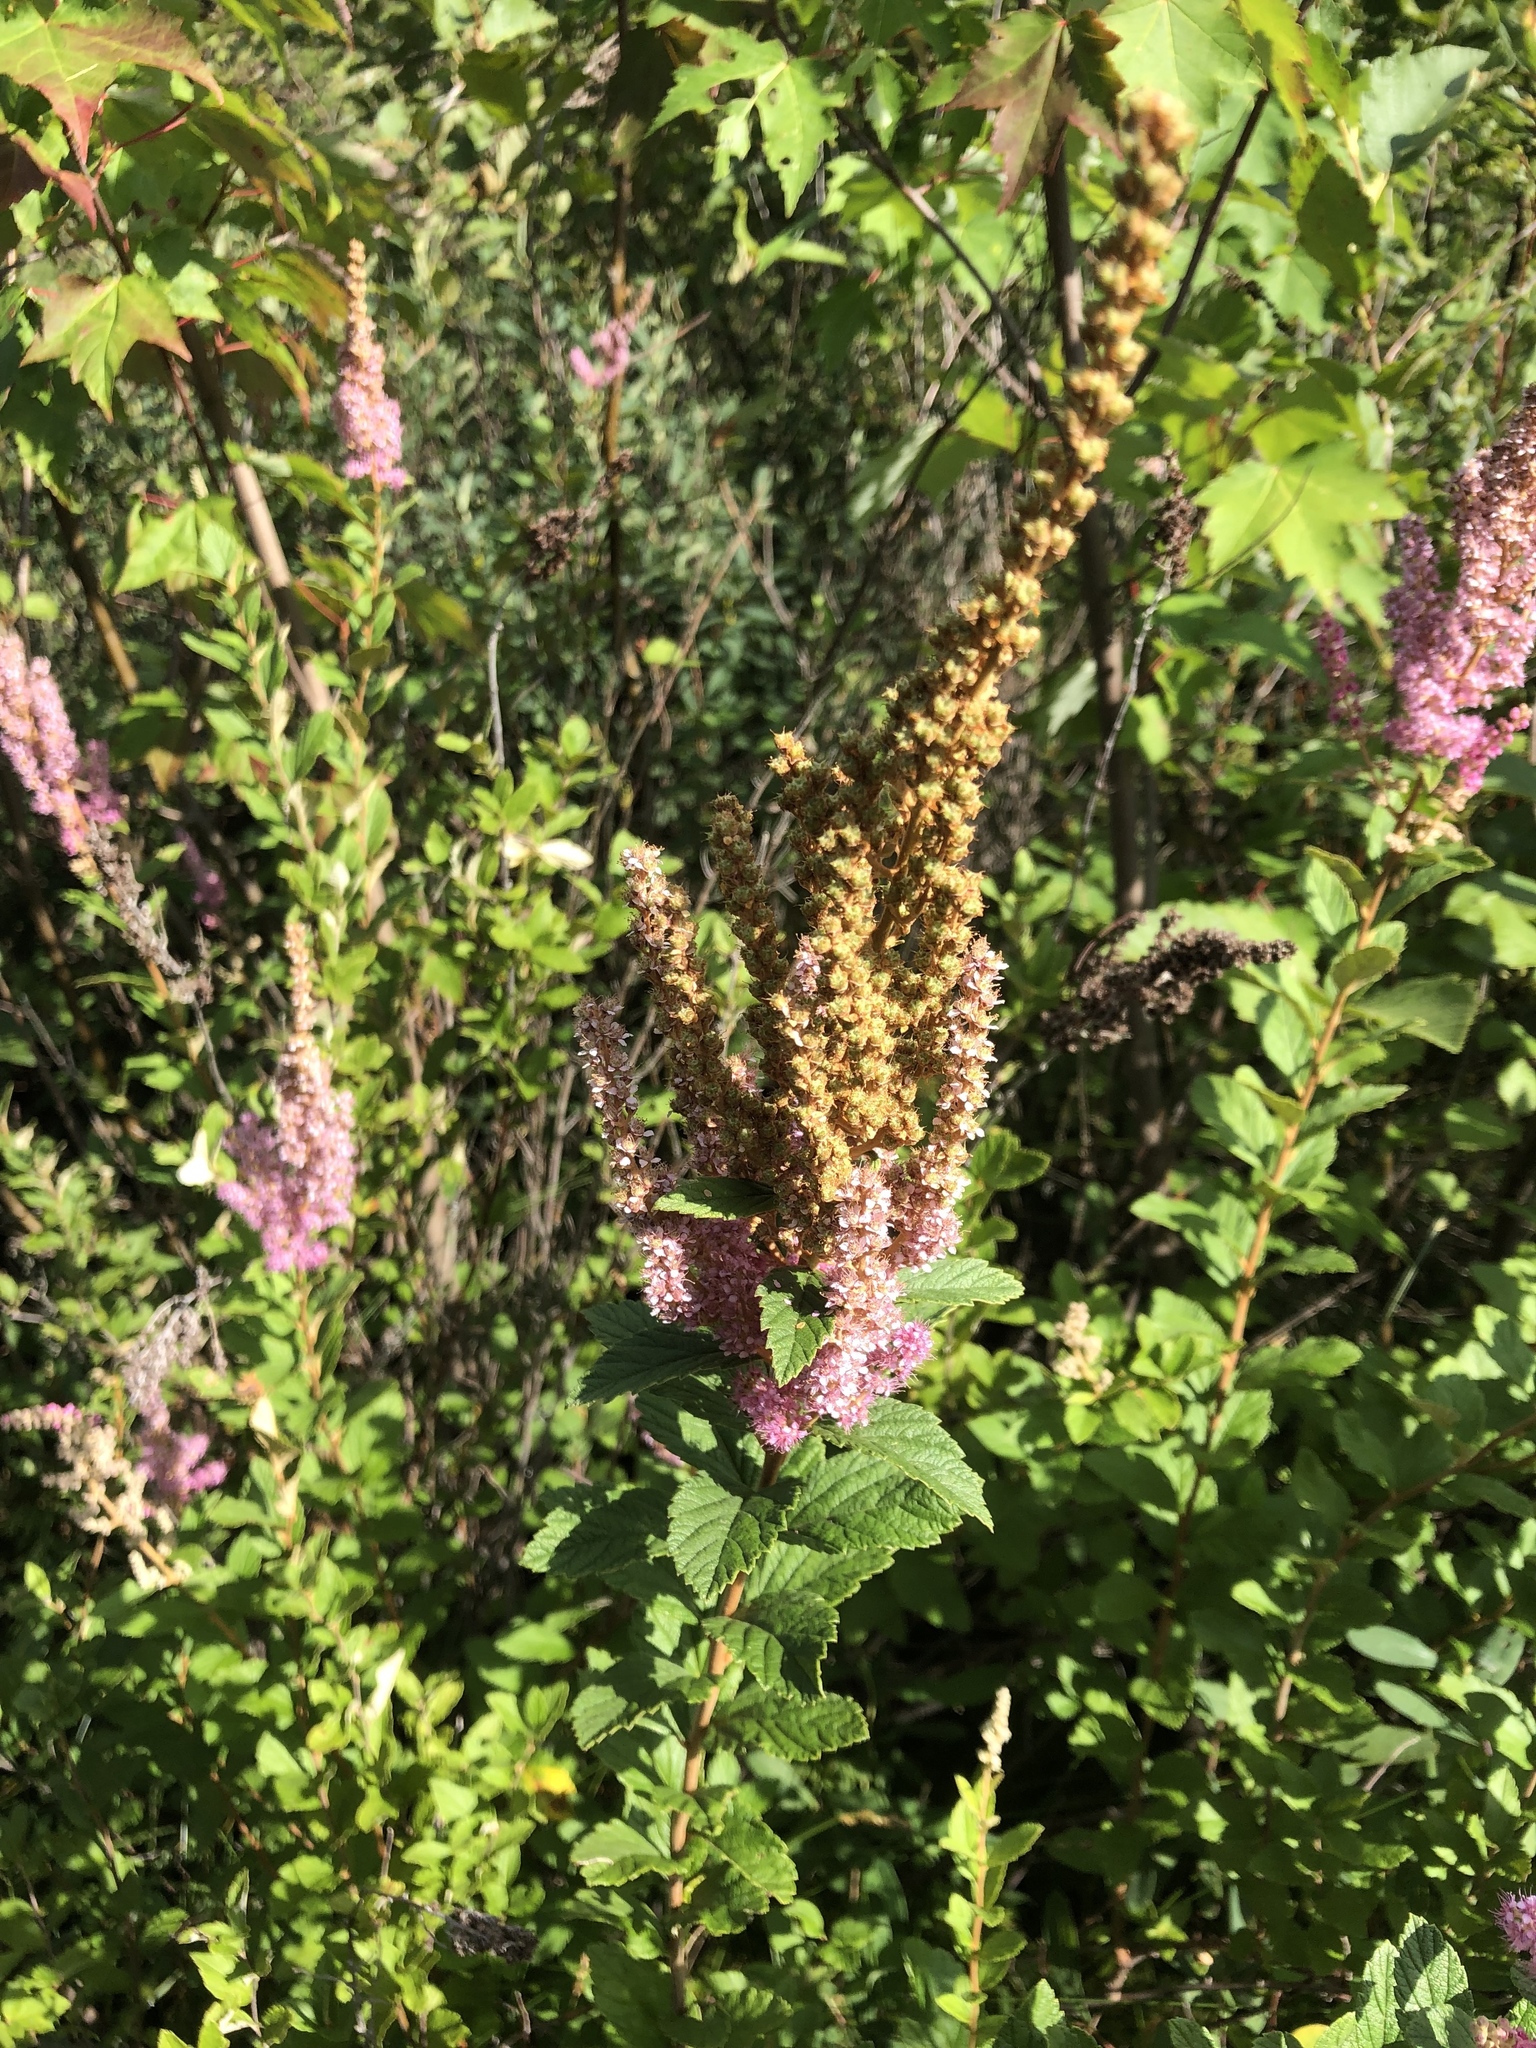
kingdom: Plantae
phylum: Tracheophyta
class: Magnoliopsida
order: Rosales
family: Rosaceae
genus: Spiraea
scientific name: Spiraea tomentosa
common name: Hardhack
